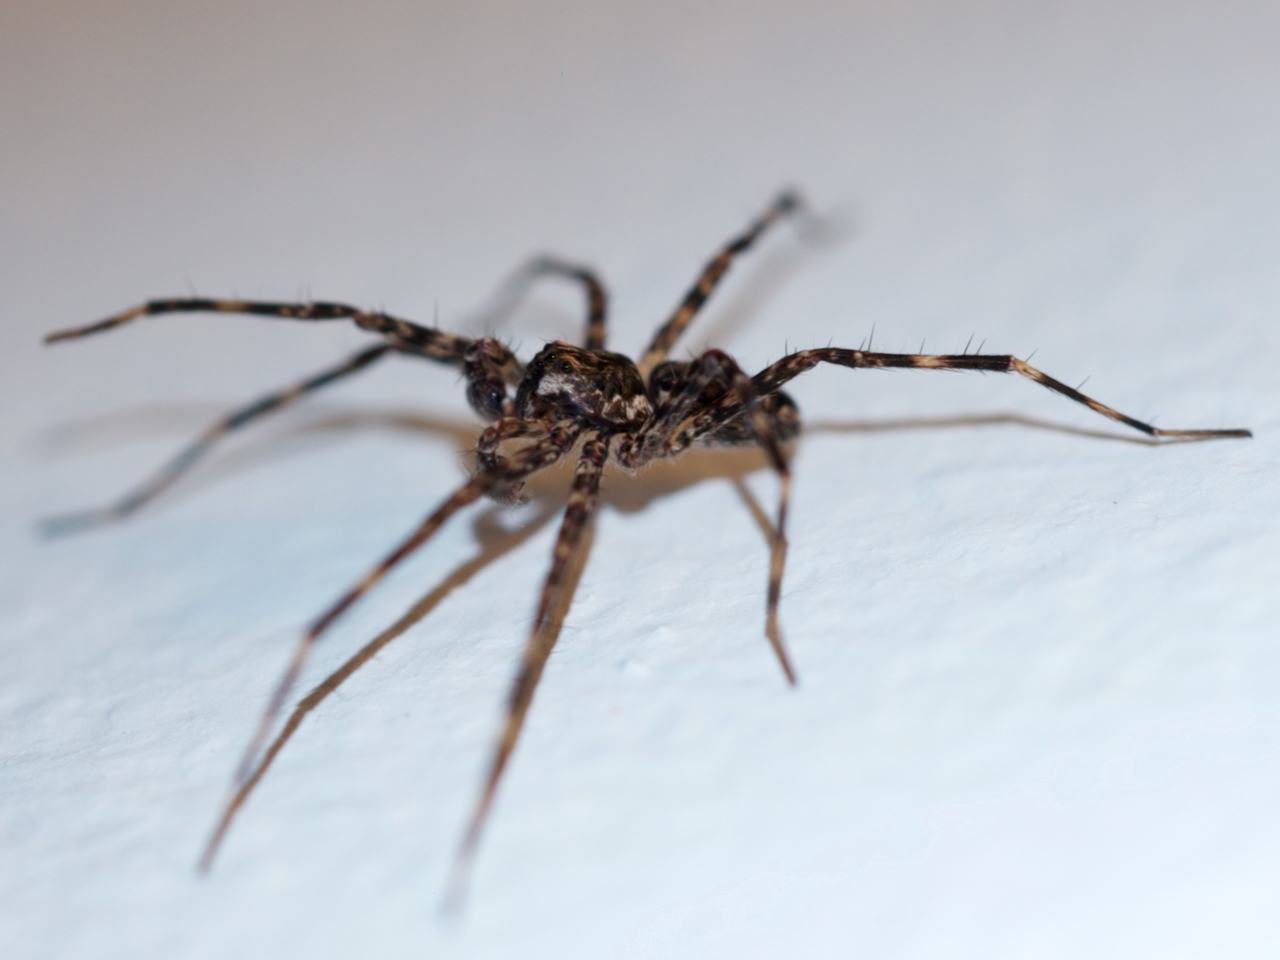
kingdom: Animalia
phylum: Arthropoda
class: Arachnida
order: Araneae
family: Pisauridae
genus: Dolomedes
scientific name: Dolomedes tenebrosus
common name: Dark fishing spider
